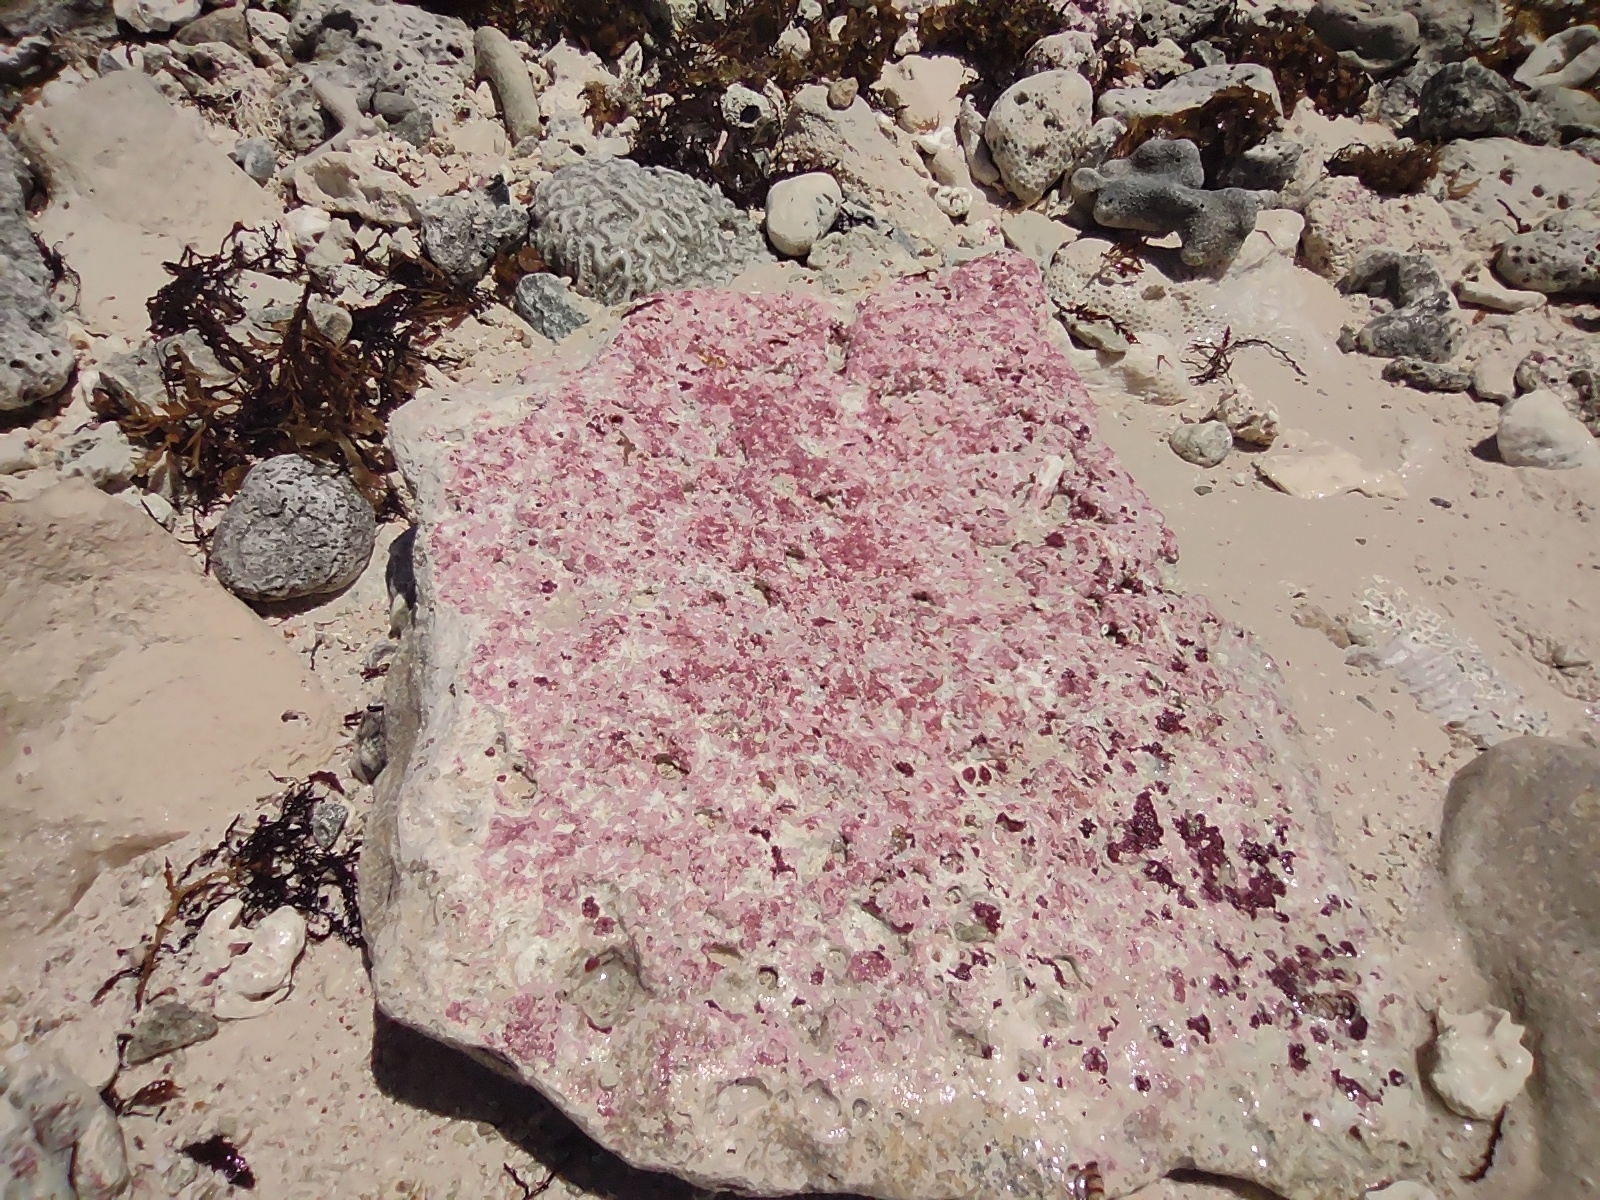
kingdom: Chromista
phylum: Foraminifera
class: Globothalamea
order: Rotaliida
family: Homotrematidae
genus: Homotrema
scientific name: Homotrema rubrum
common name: Red foram
